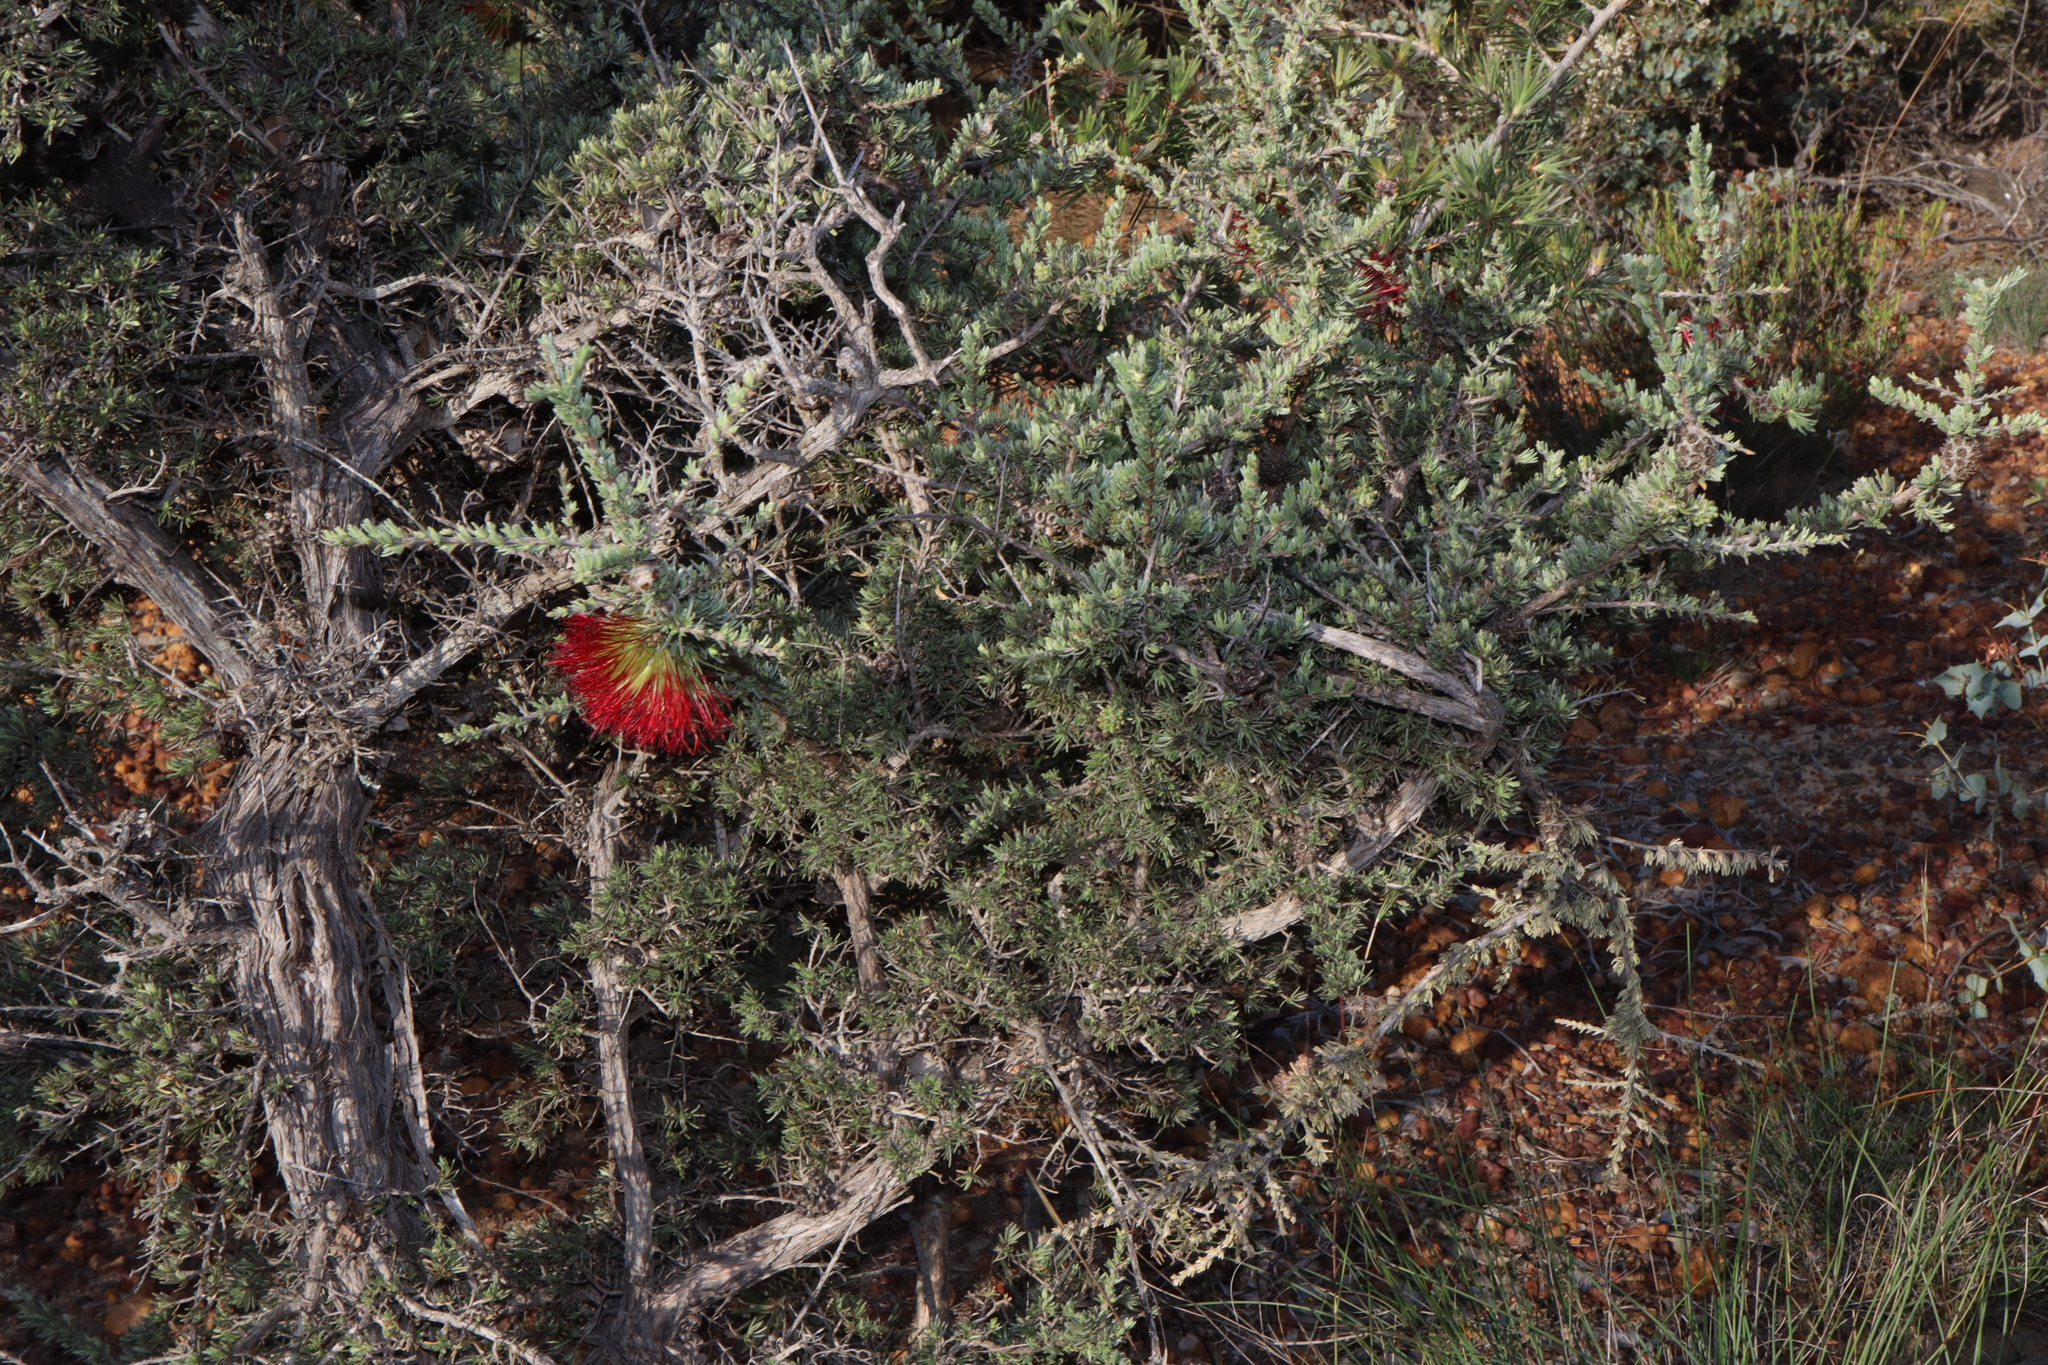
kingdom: Plantae
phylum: Tracheophyta
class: Magnoliopsida
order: Myrtales
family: Myrtaceae
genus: Melaleuca
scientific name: Melaleuca cinerea
